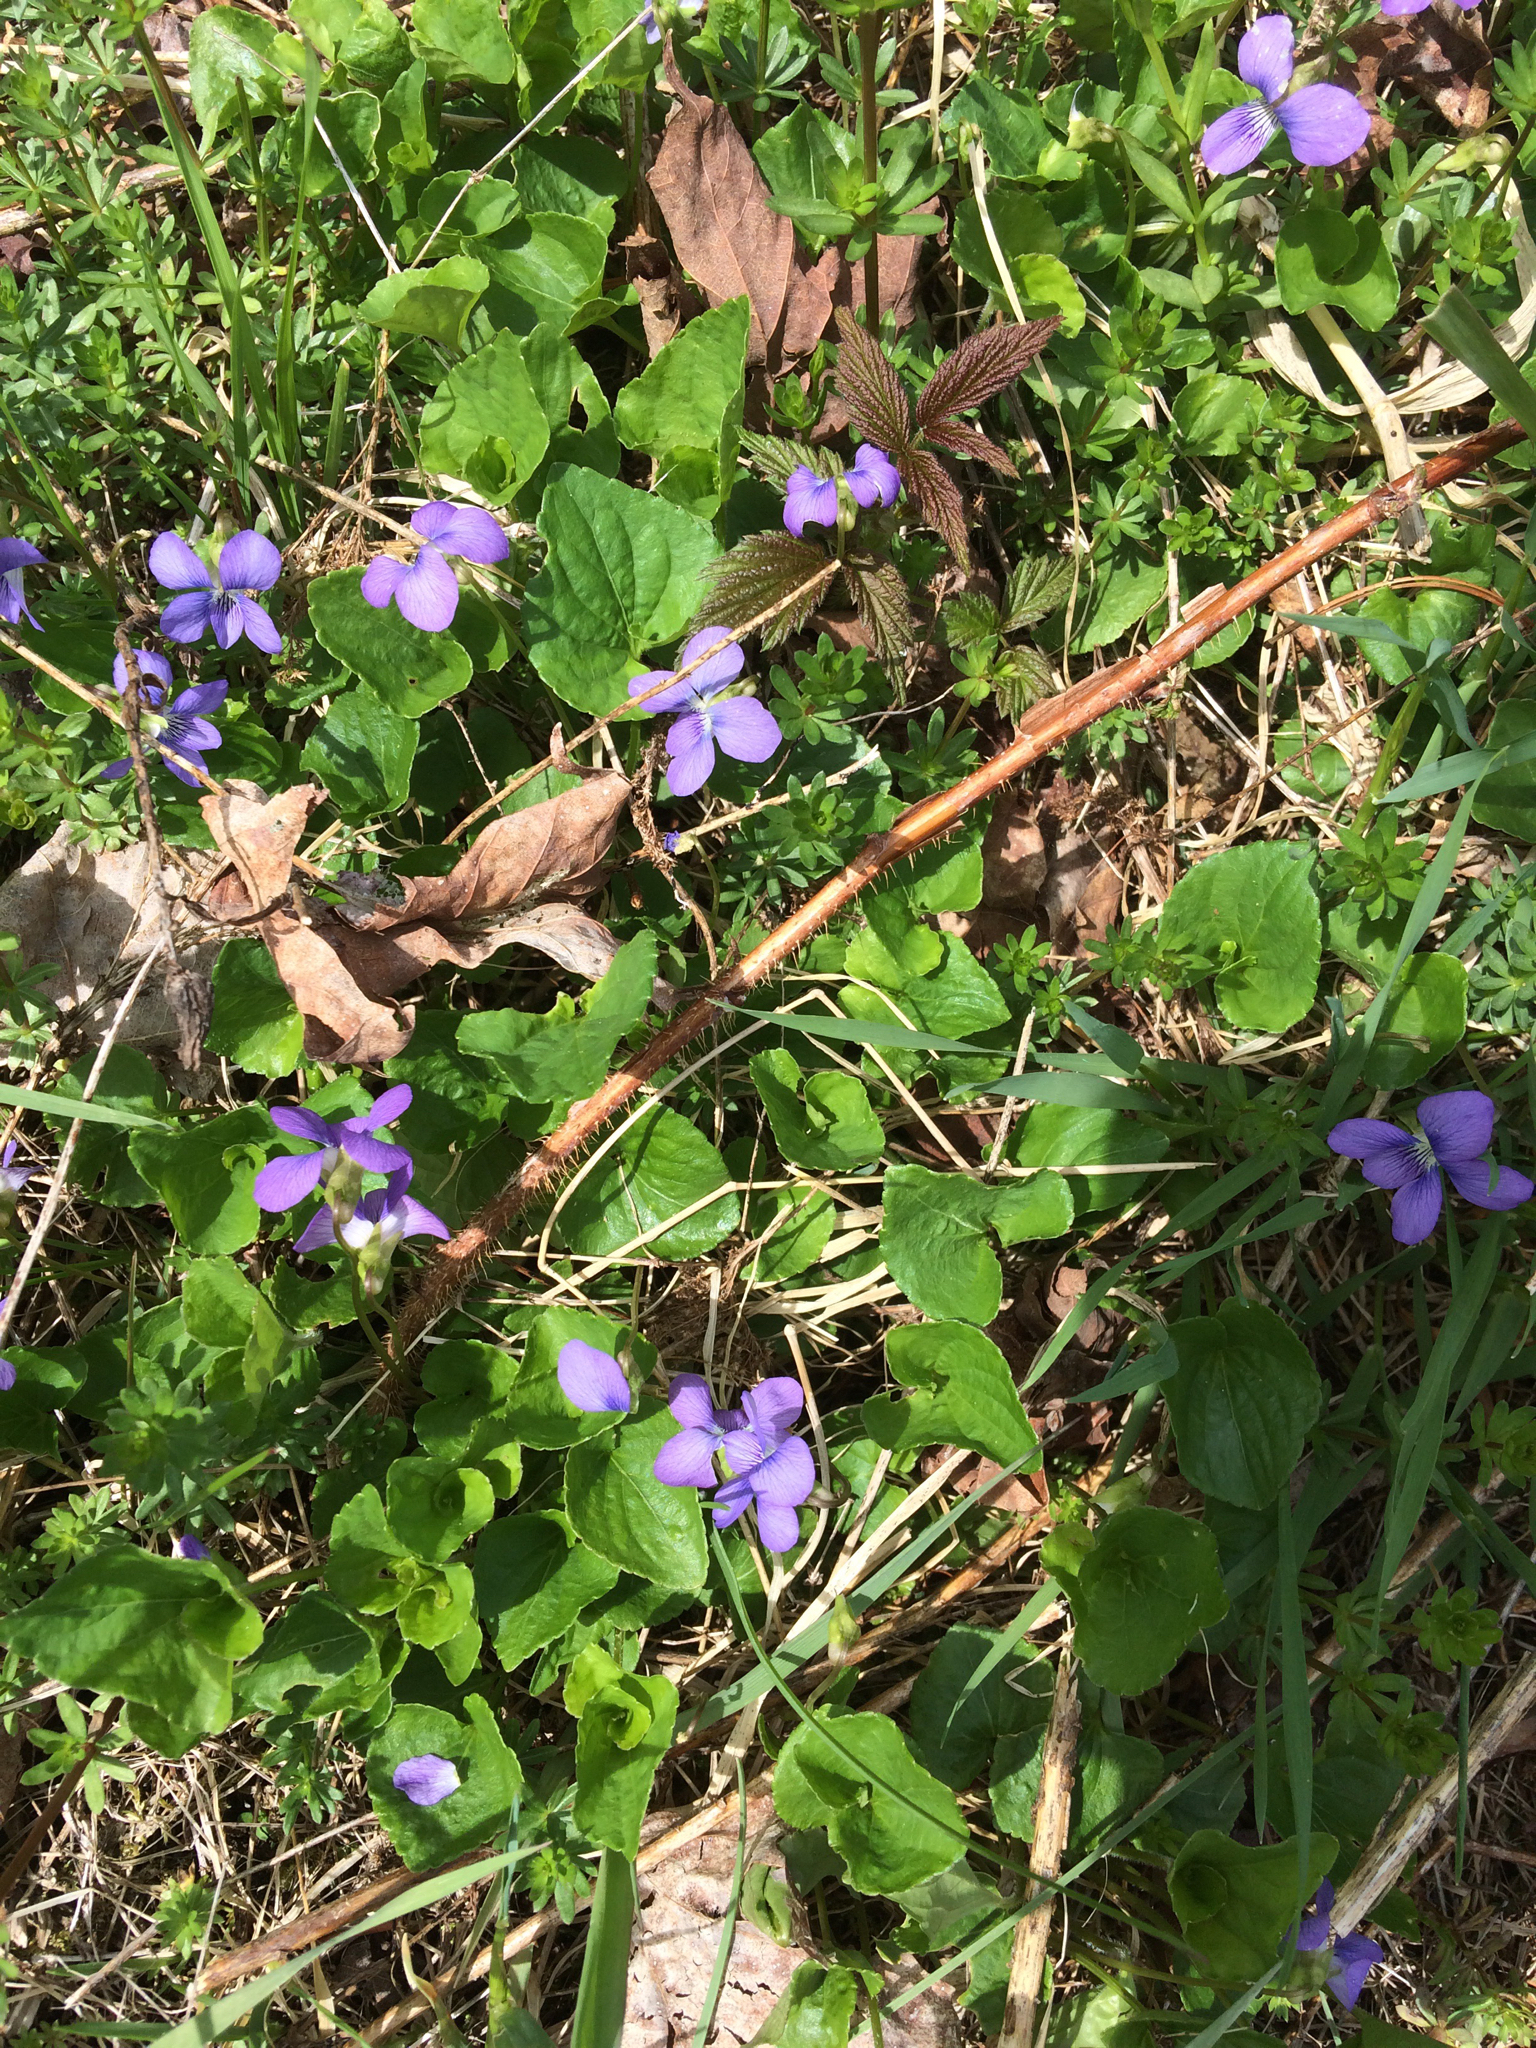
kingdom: Plantae
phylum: Tracheophyta
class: Magnoliopsida
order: Malpighiales
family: Violaceae
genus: Viola
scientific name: Viola sororia
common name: Dooryard violet
